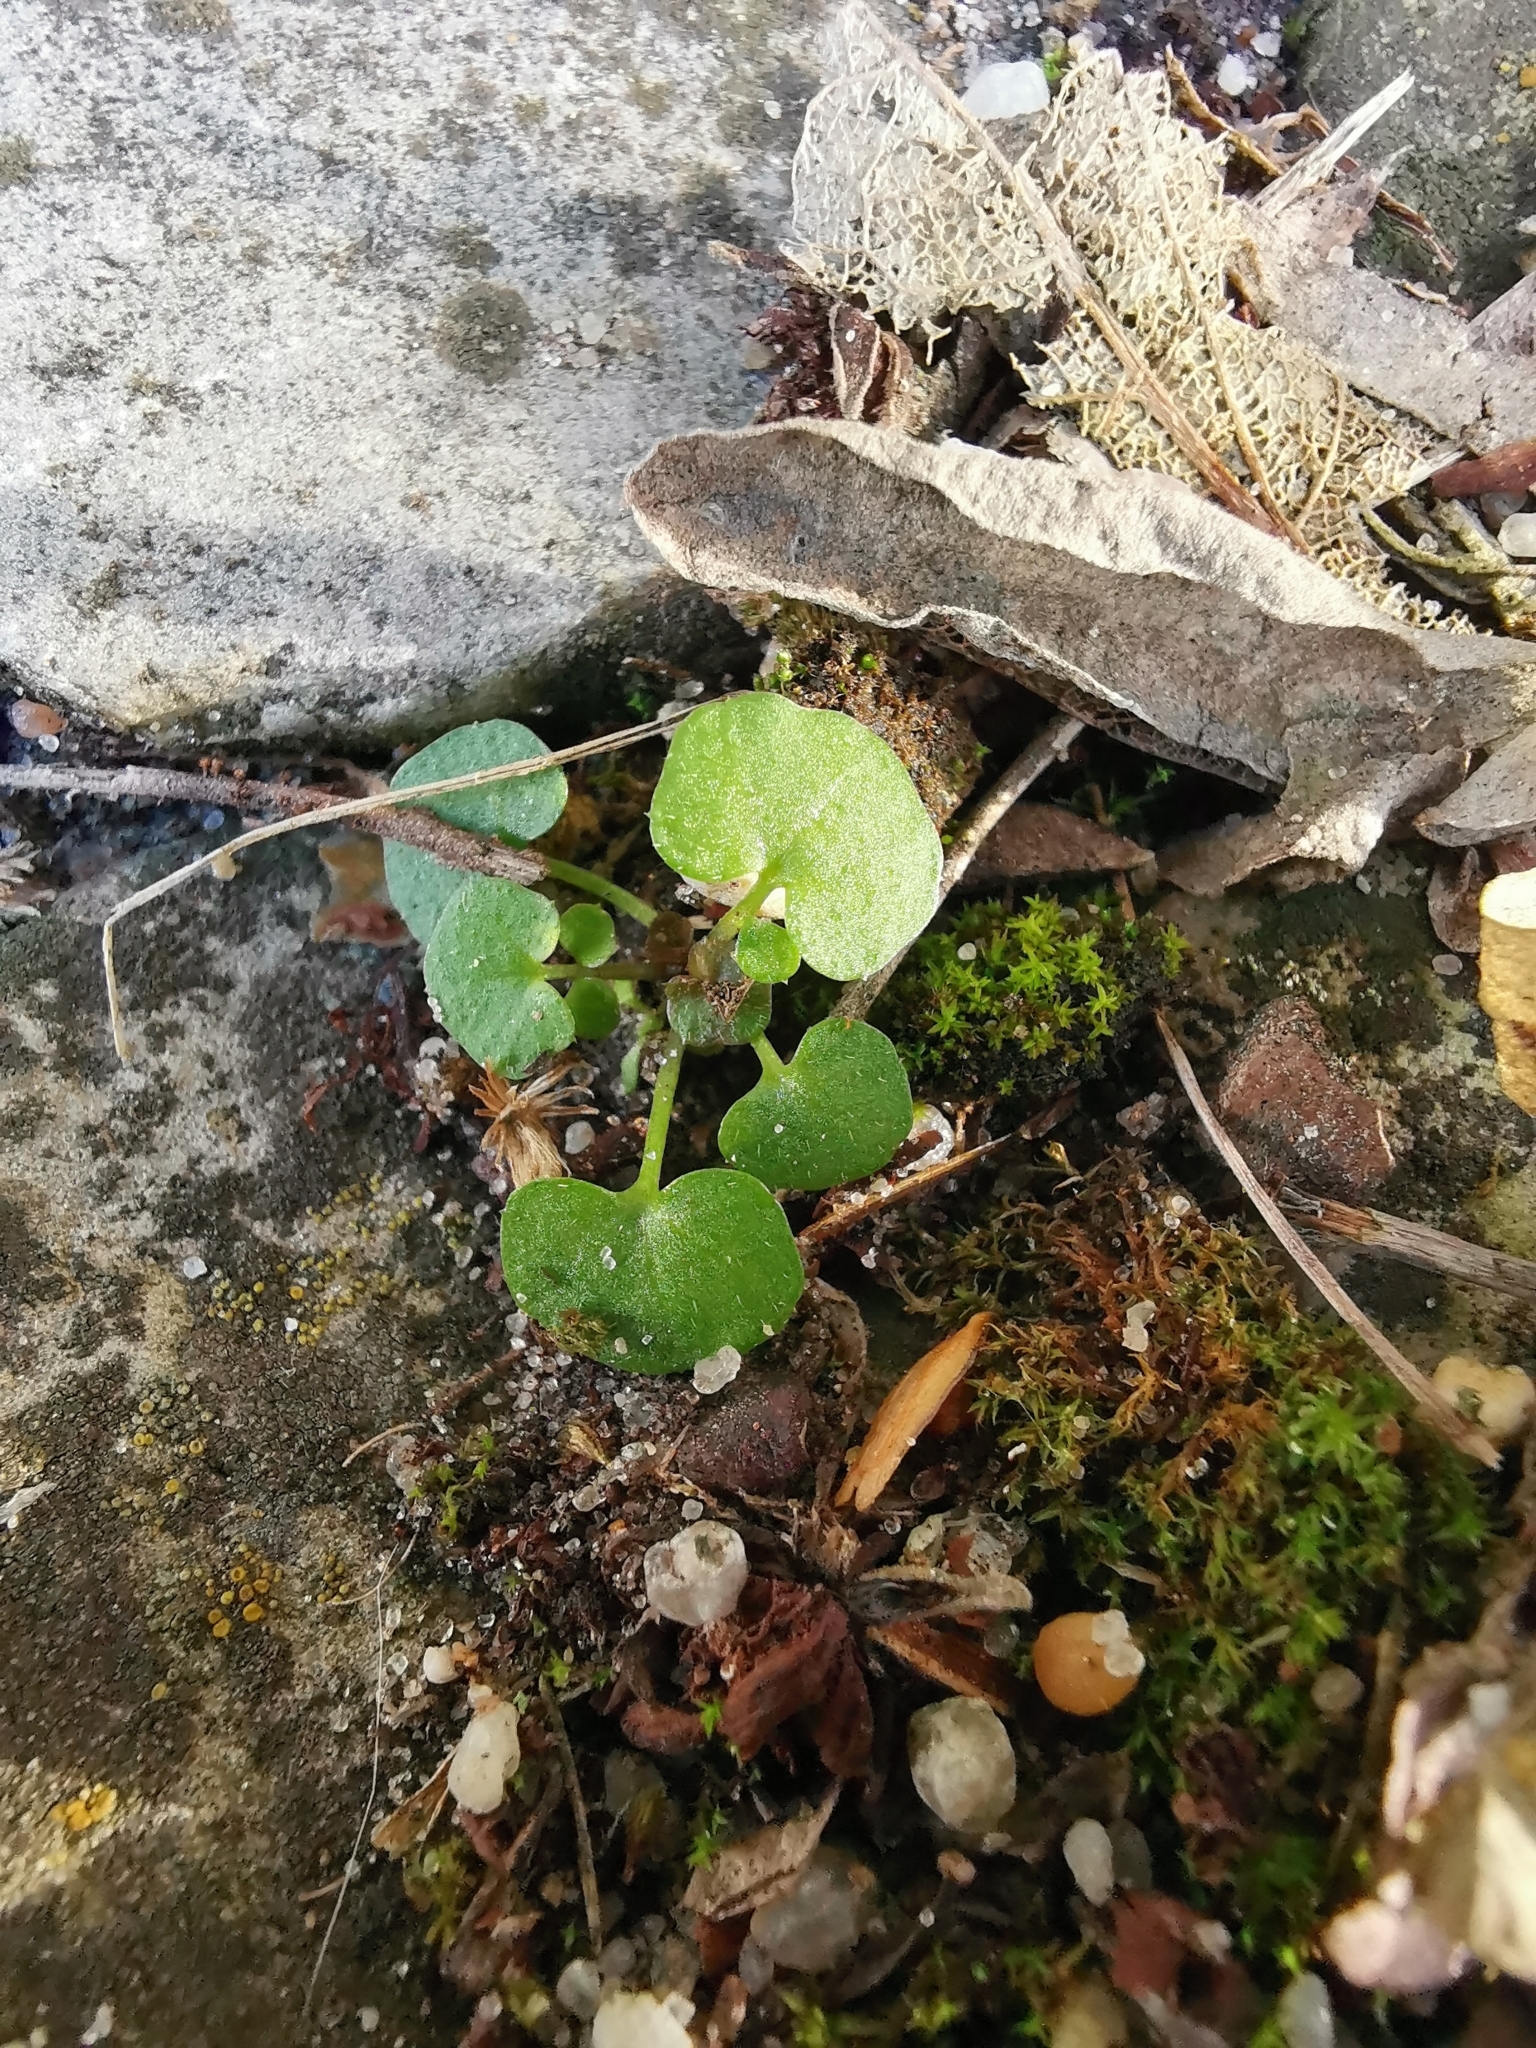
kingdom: Plantae
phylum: Tracheophyta
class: Magnoliopsida
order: Brassicales
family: Brassicaceae
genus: Cardamine
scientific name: Cardamine hirsuta
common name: Hairy bittercress
